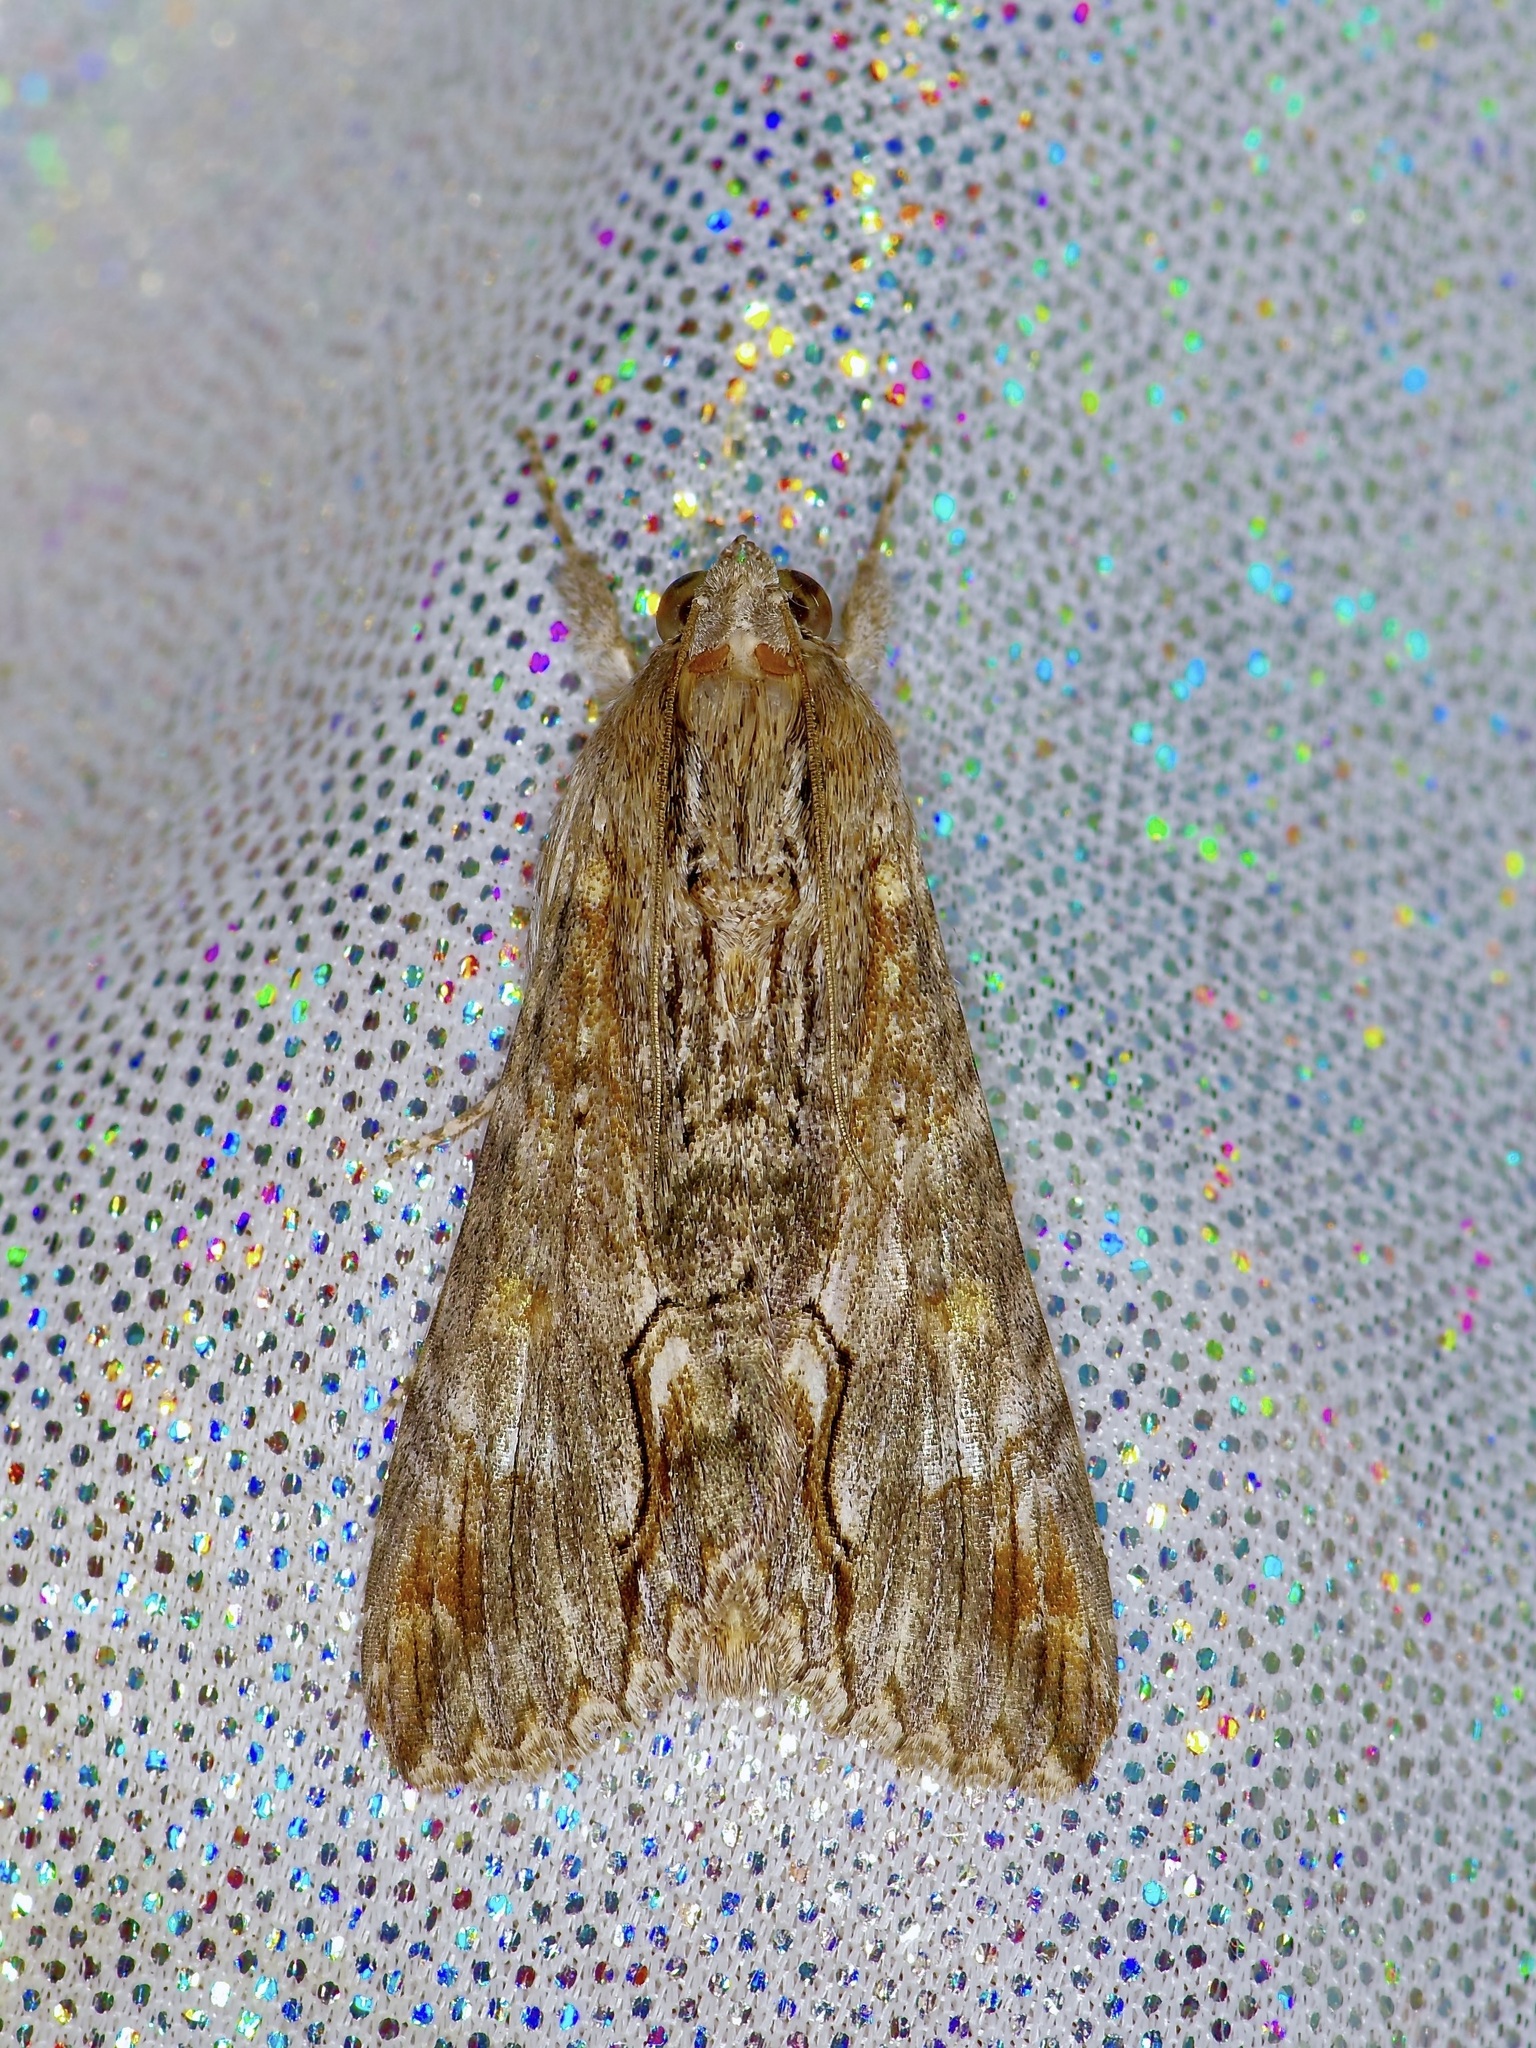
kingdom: Animalia
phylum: Arthropoda
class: Insecta
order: Lepidoptera
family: Erebidae
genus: Melipotis
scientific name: Melipotis acontioides
